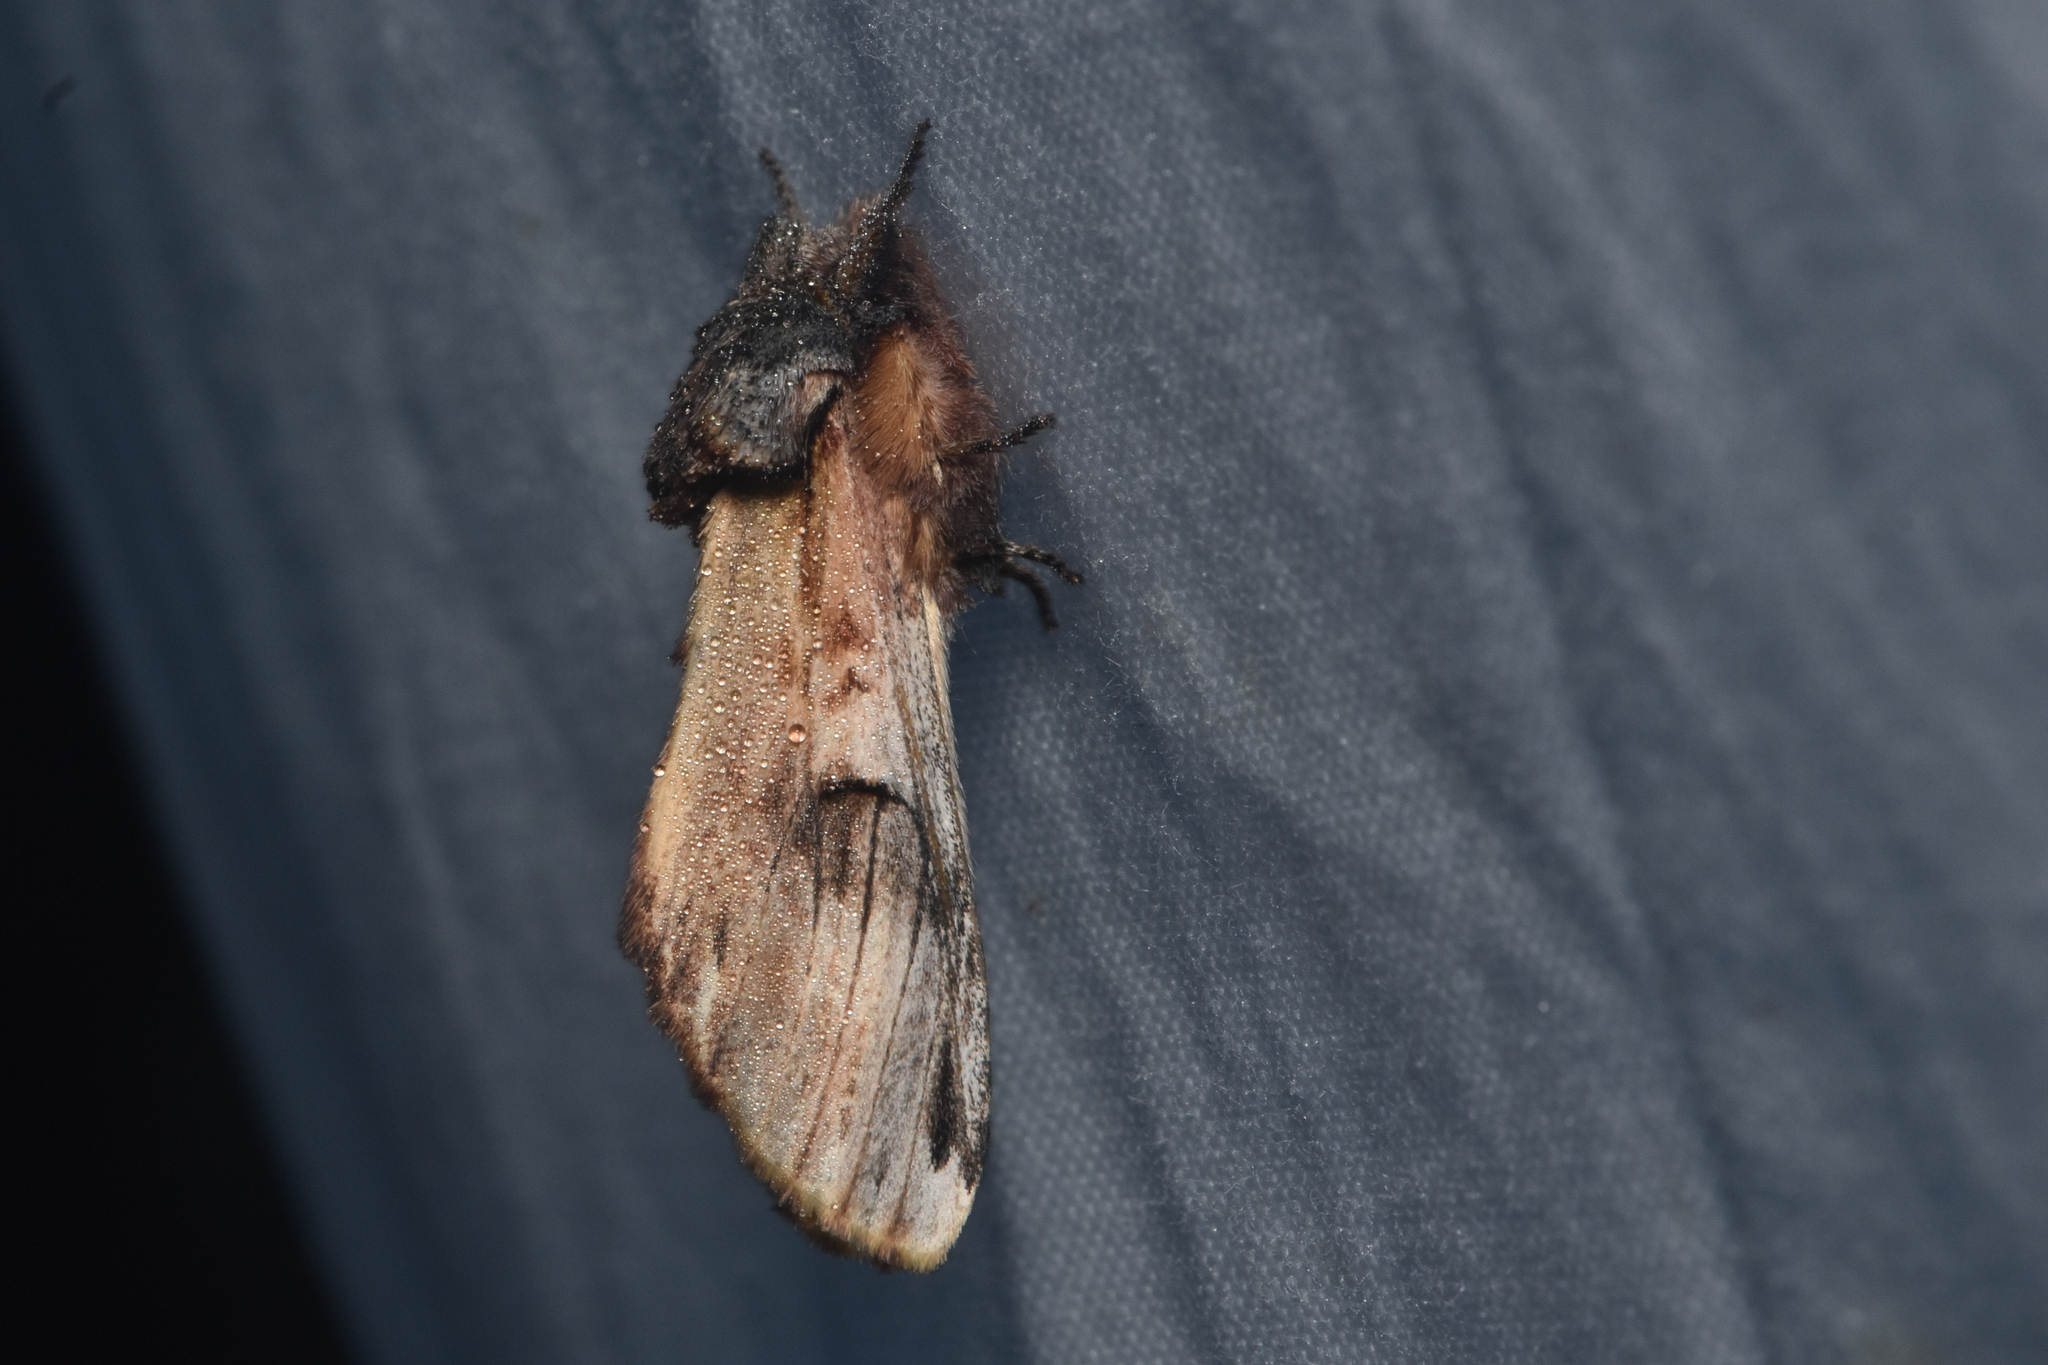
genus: Ianassa
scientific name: Ianassa
